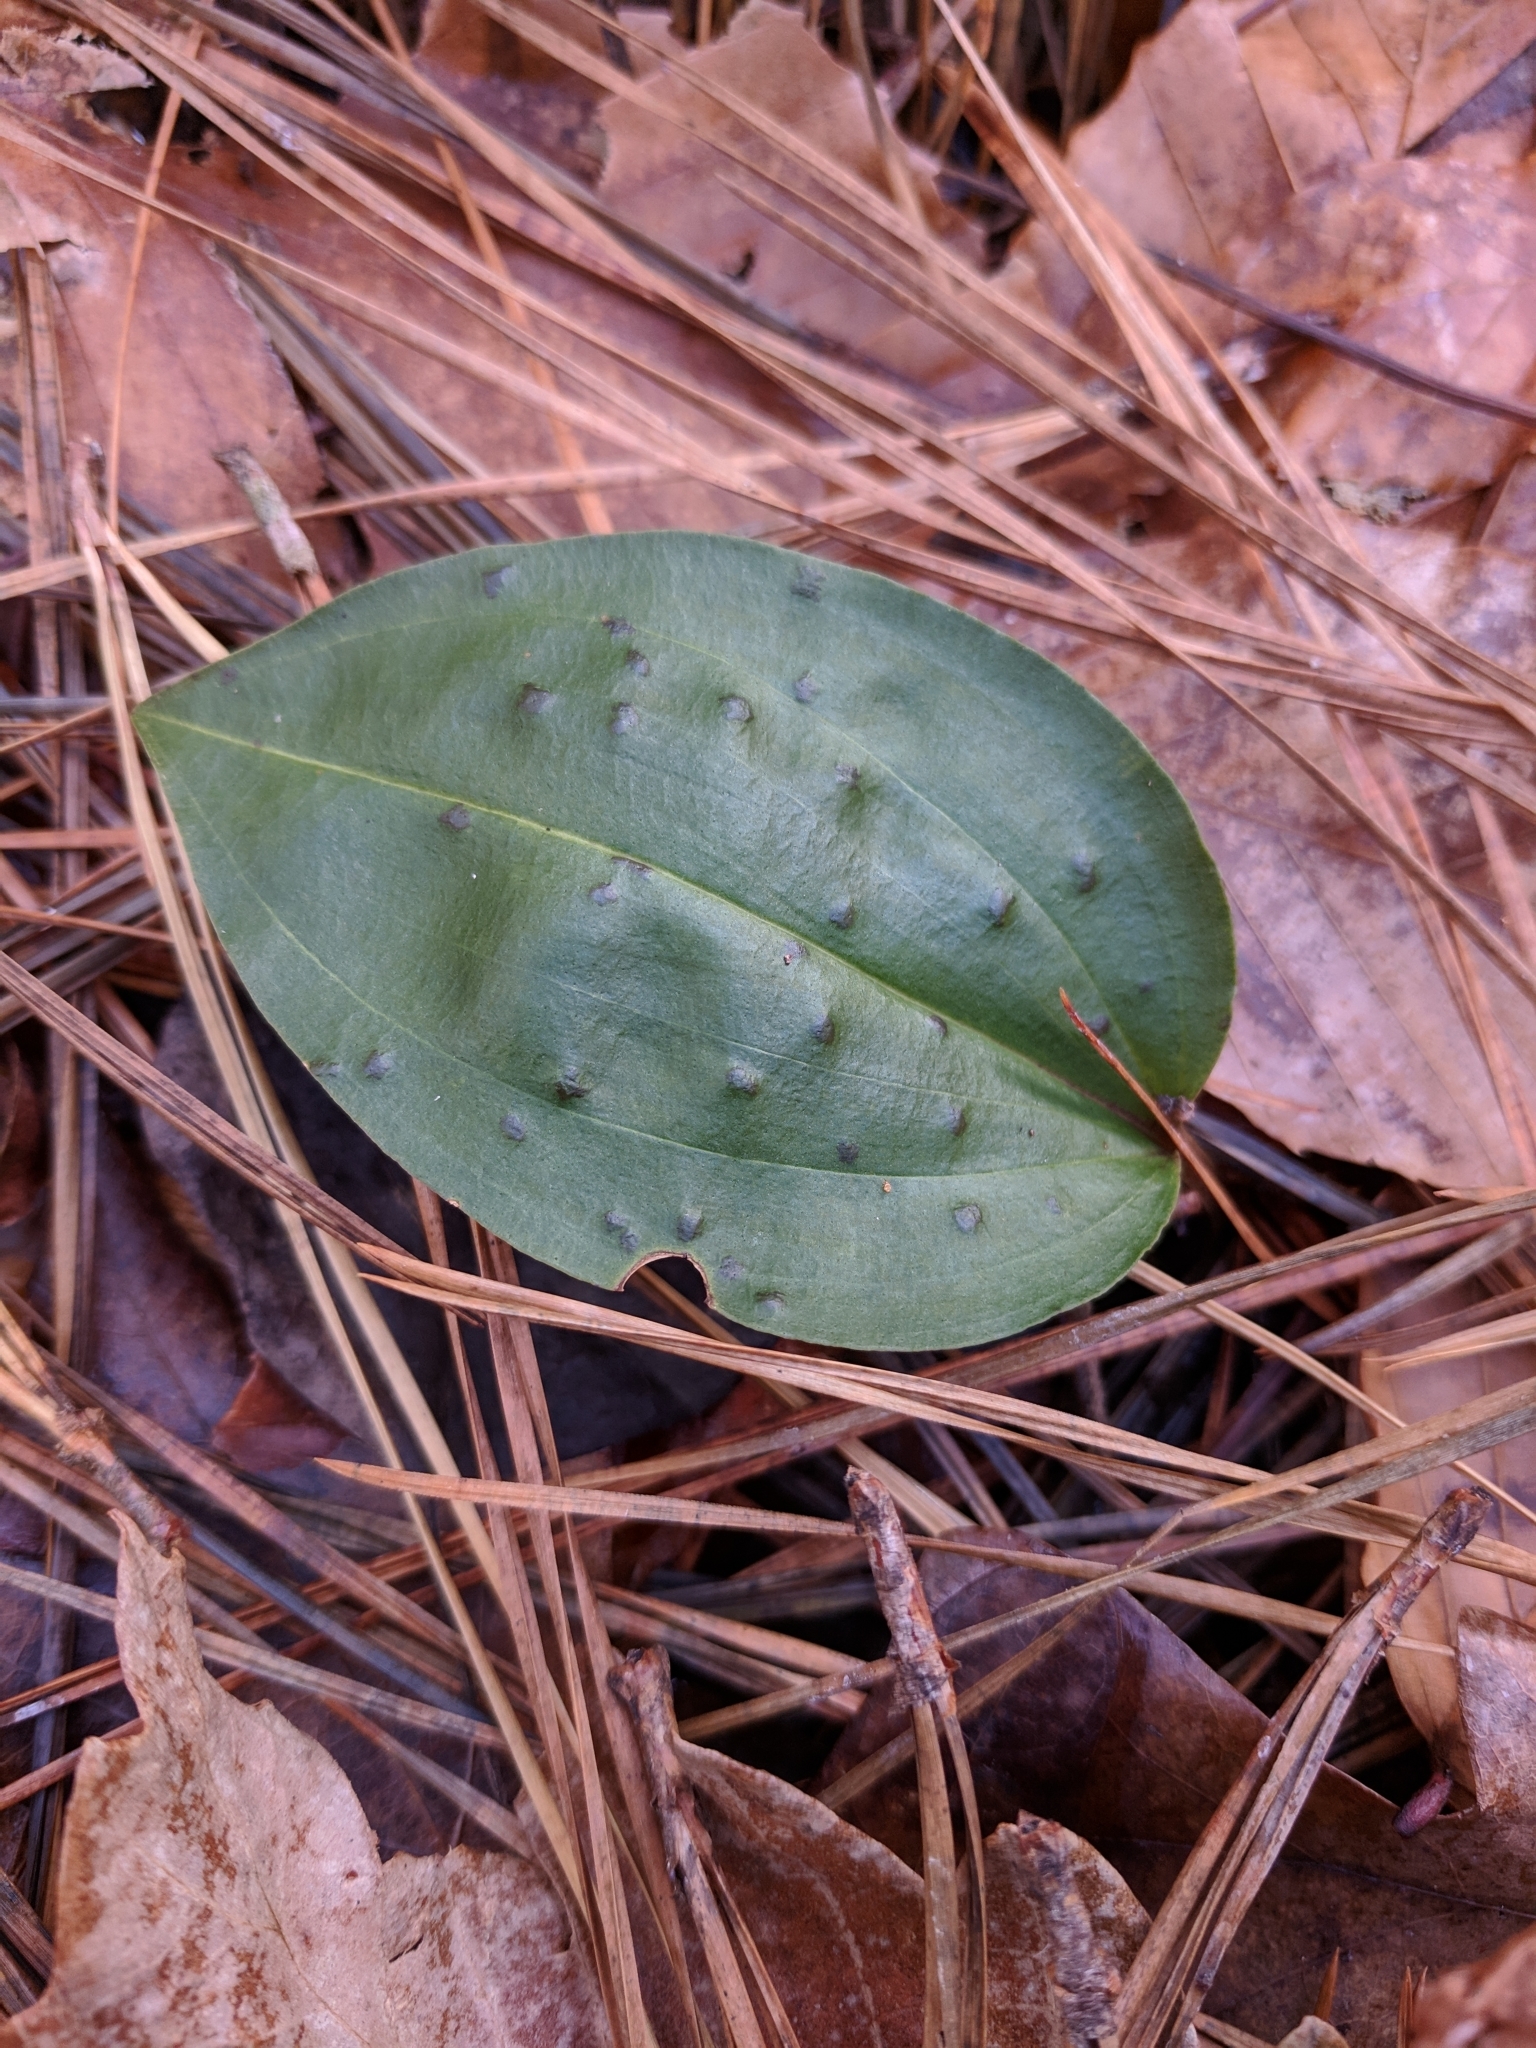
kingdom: Plantae
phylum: Tracheophyta
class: Liliopsida
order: Asparagales
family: Orchidaceae
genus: Tipularia
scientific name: Tipularia discolor
